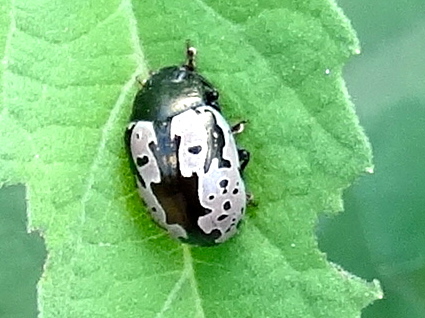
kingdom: Animalia
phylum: Arthropoda
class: Insecta
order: Coleoptera
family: Chrysomelidae
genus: Calligrapha
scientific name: Calligrapha intermedia
